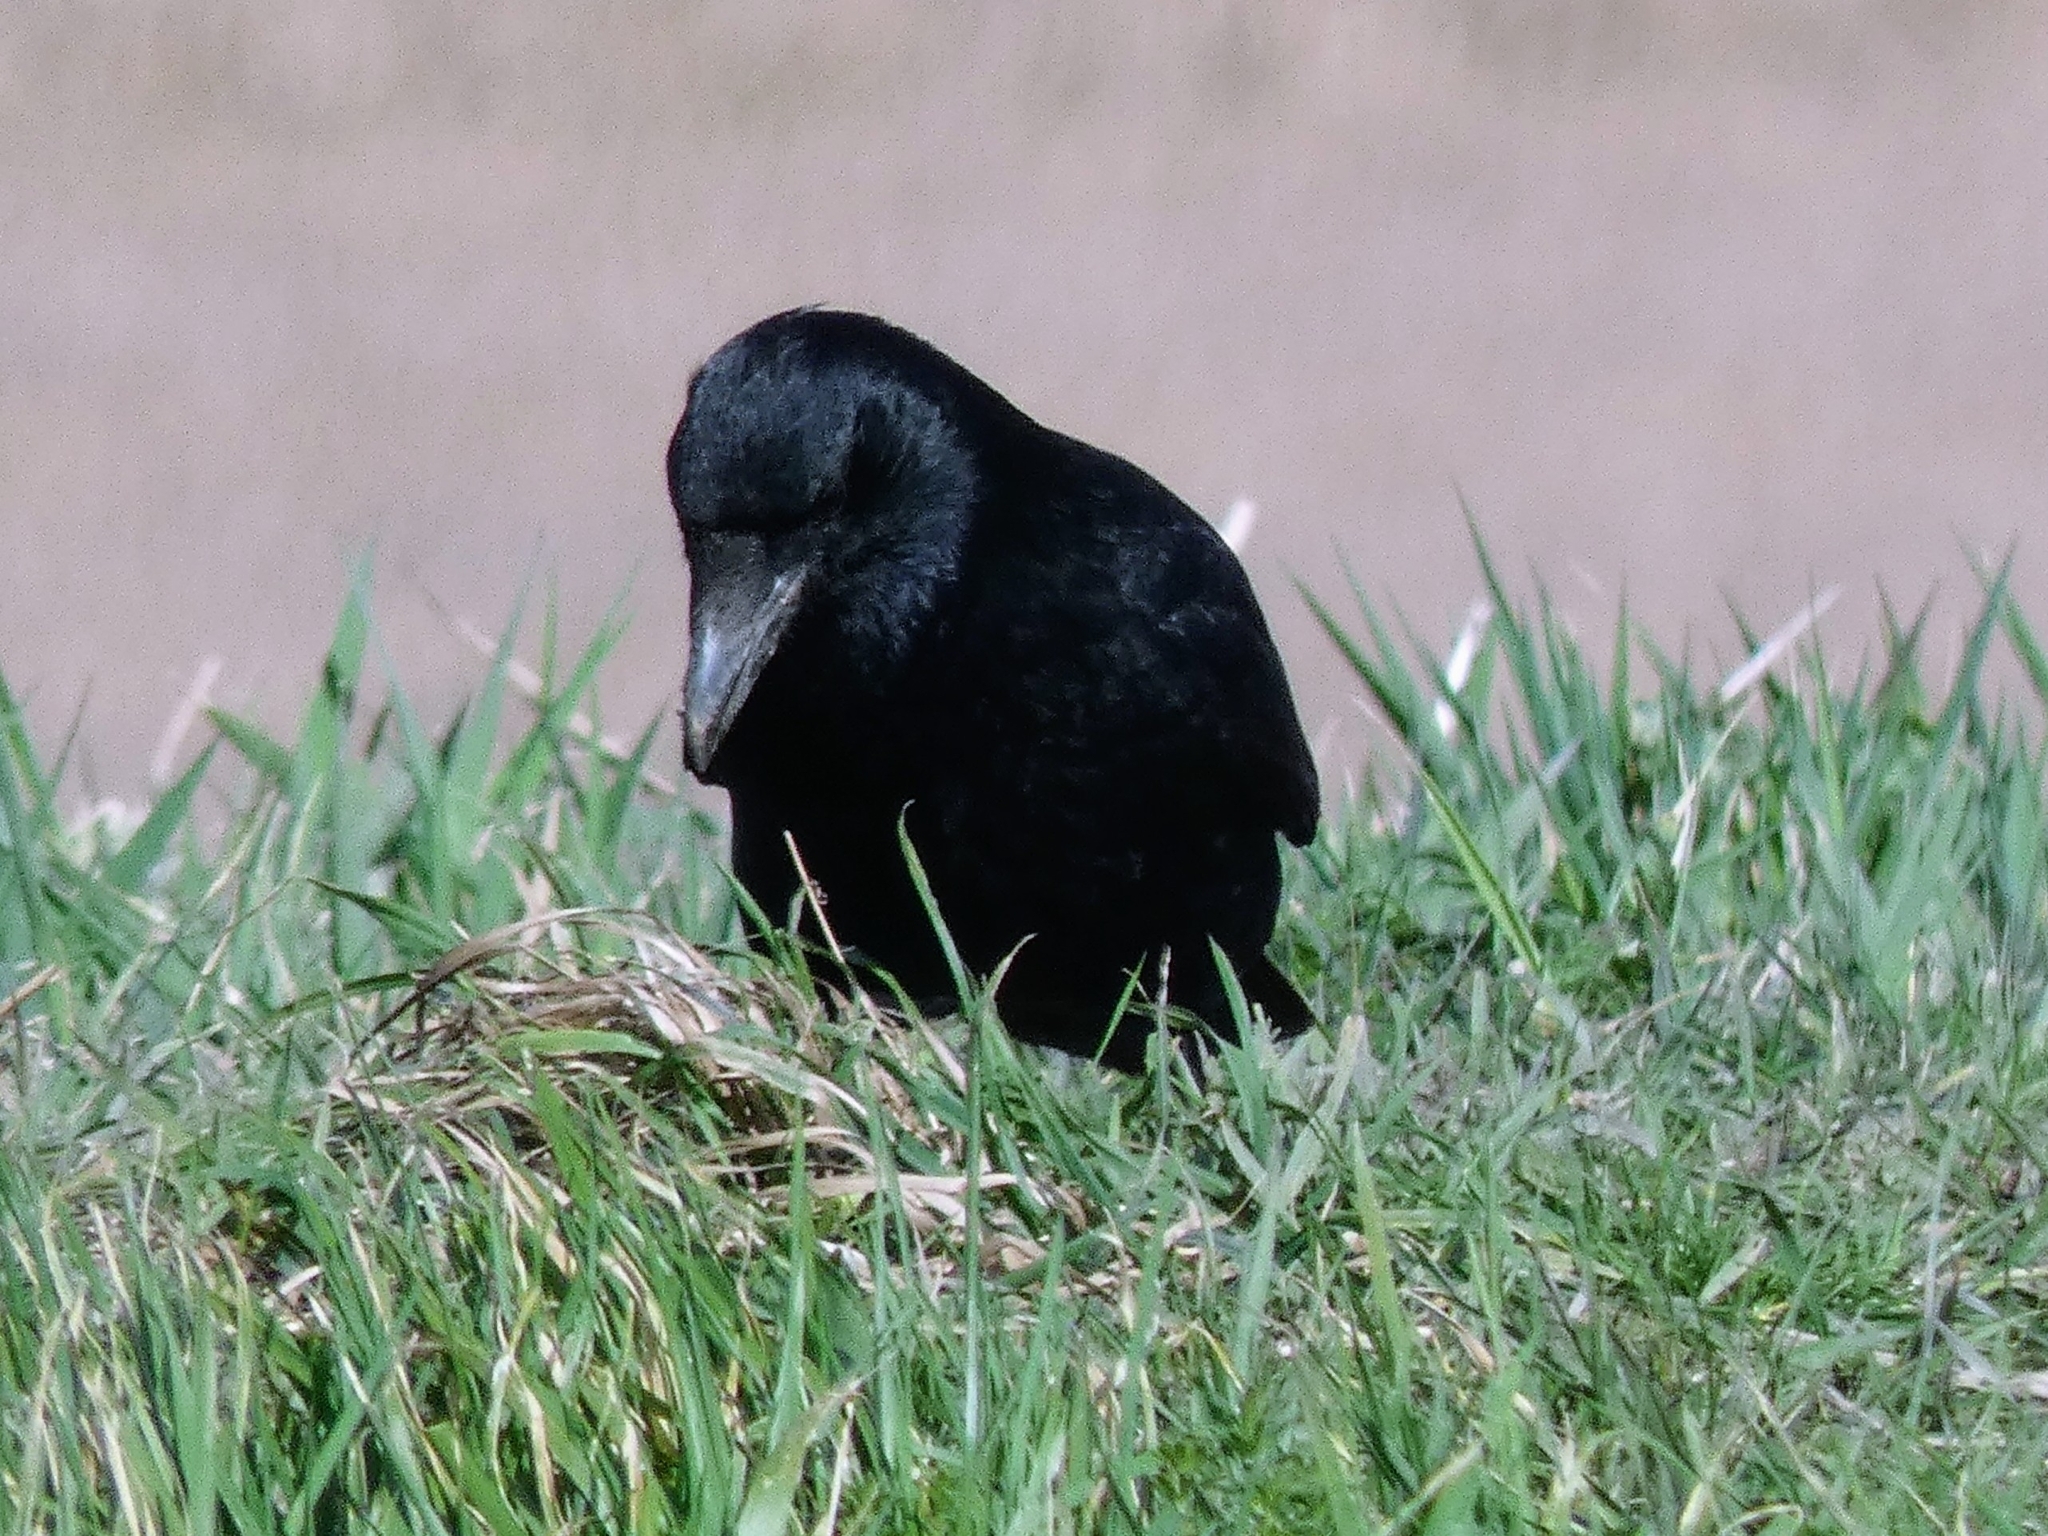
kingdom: Animalia
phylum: Chordata
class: Aves
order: Passeriformes
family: Corvidae
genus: Corvus
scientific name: Corvus corone
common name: Carrion crow
